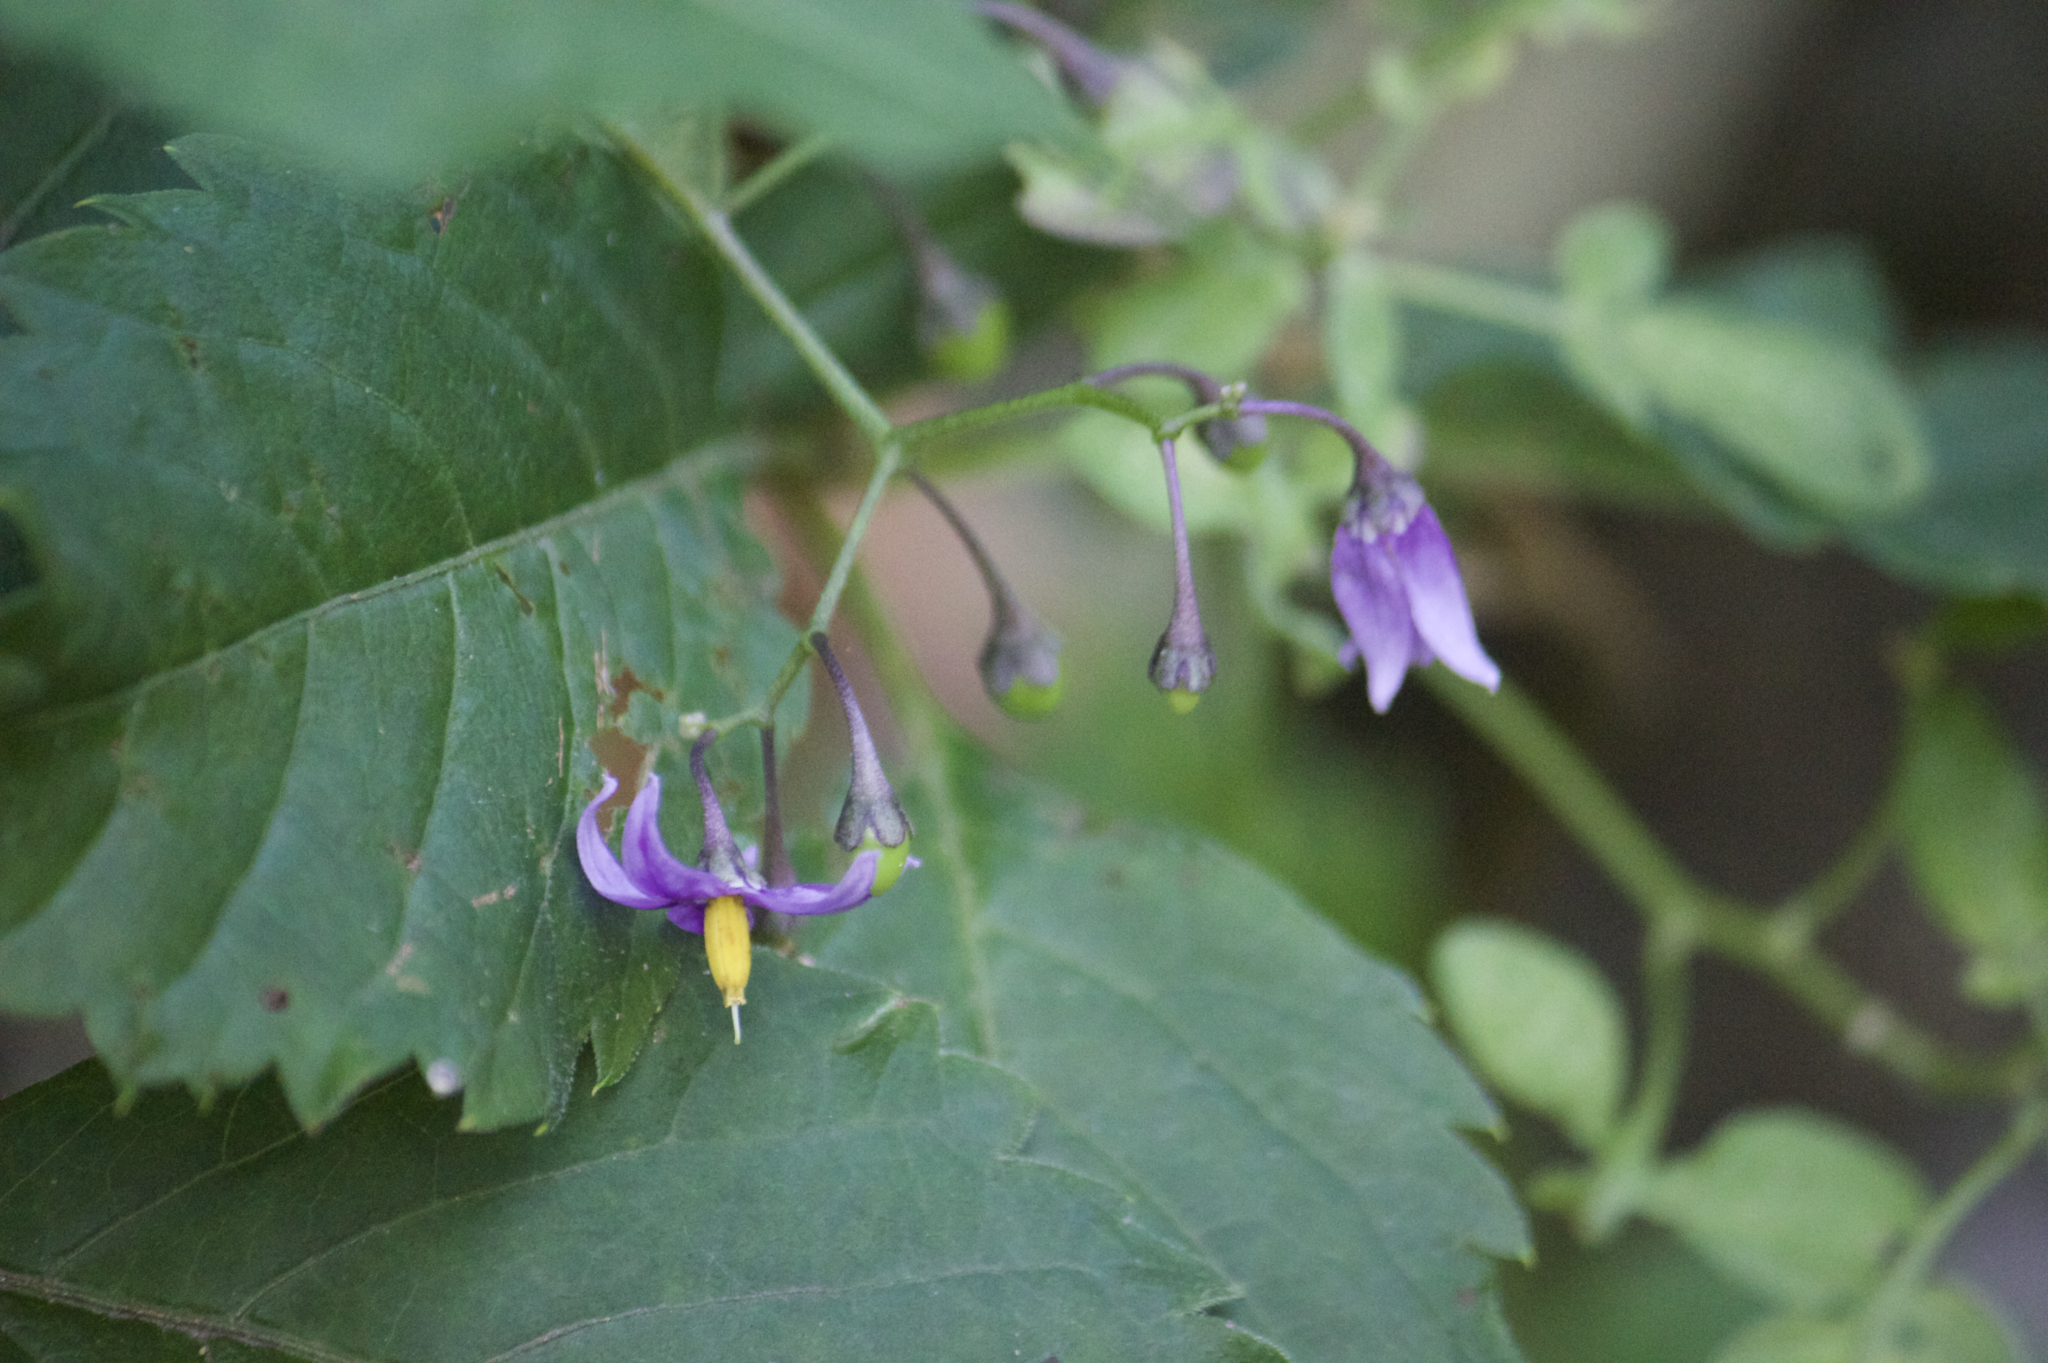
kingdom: Plantae
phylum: Tracheophyta
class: Magnoliopsida
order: Solanales
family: Solanaceae
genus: Solanum
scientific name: Solanum dulcamara
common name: Climbing nightshade
